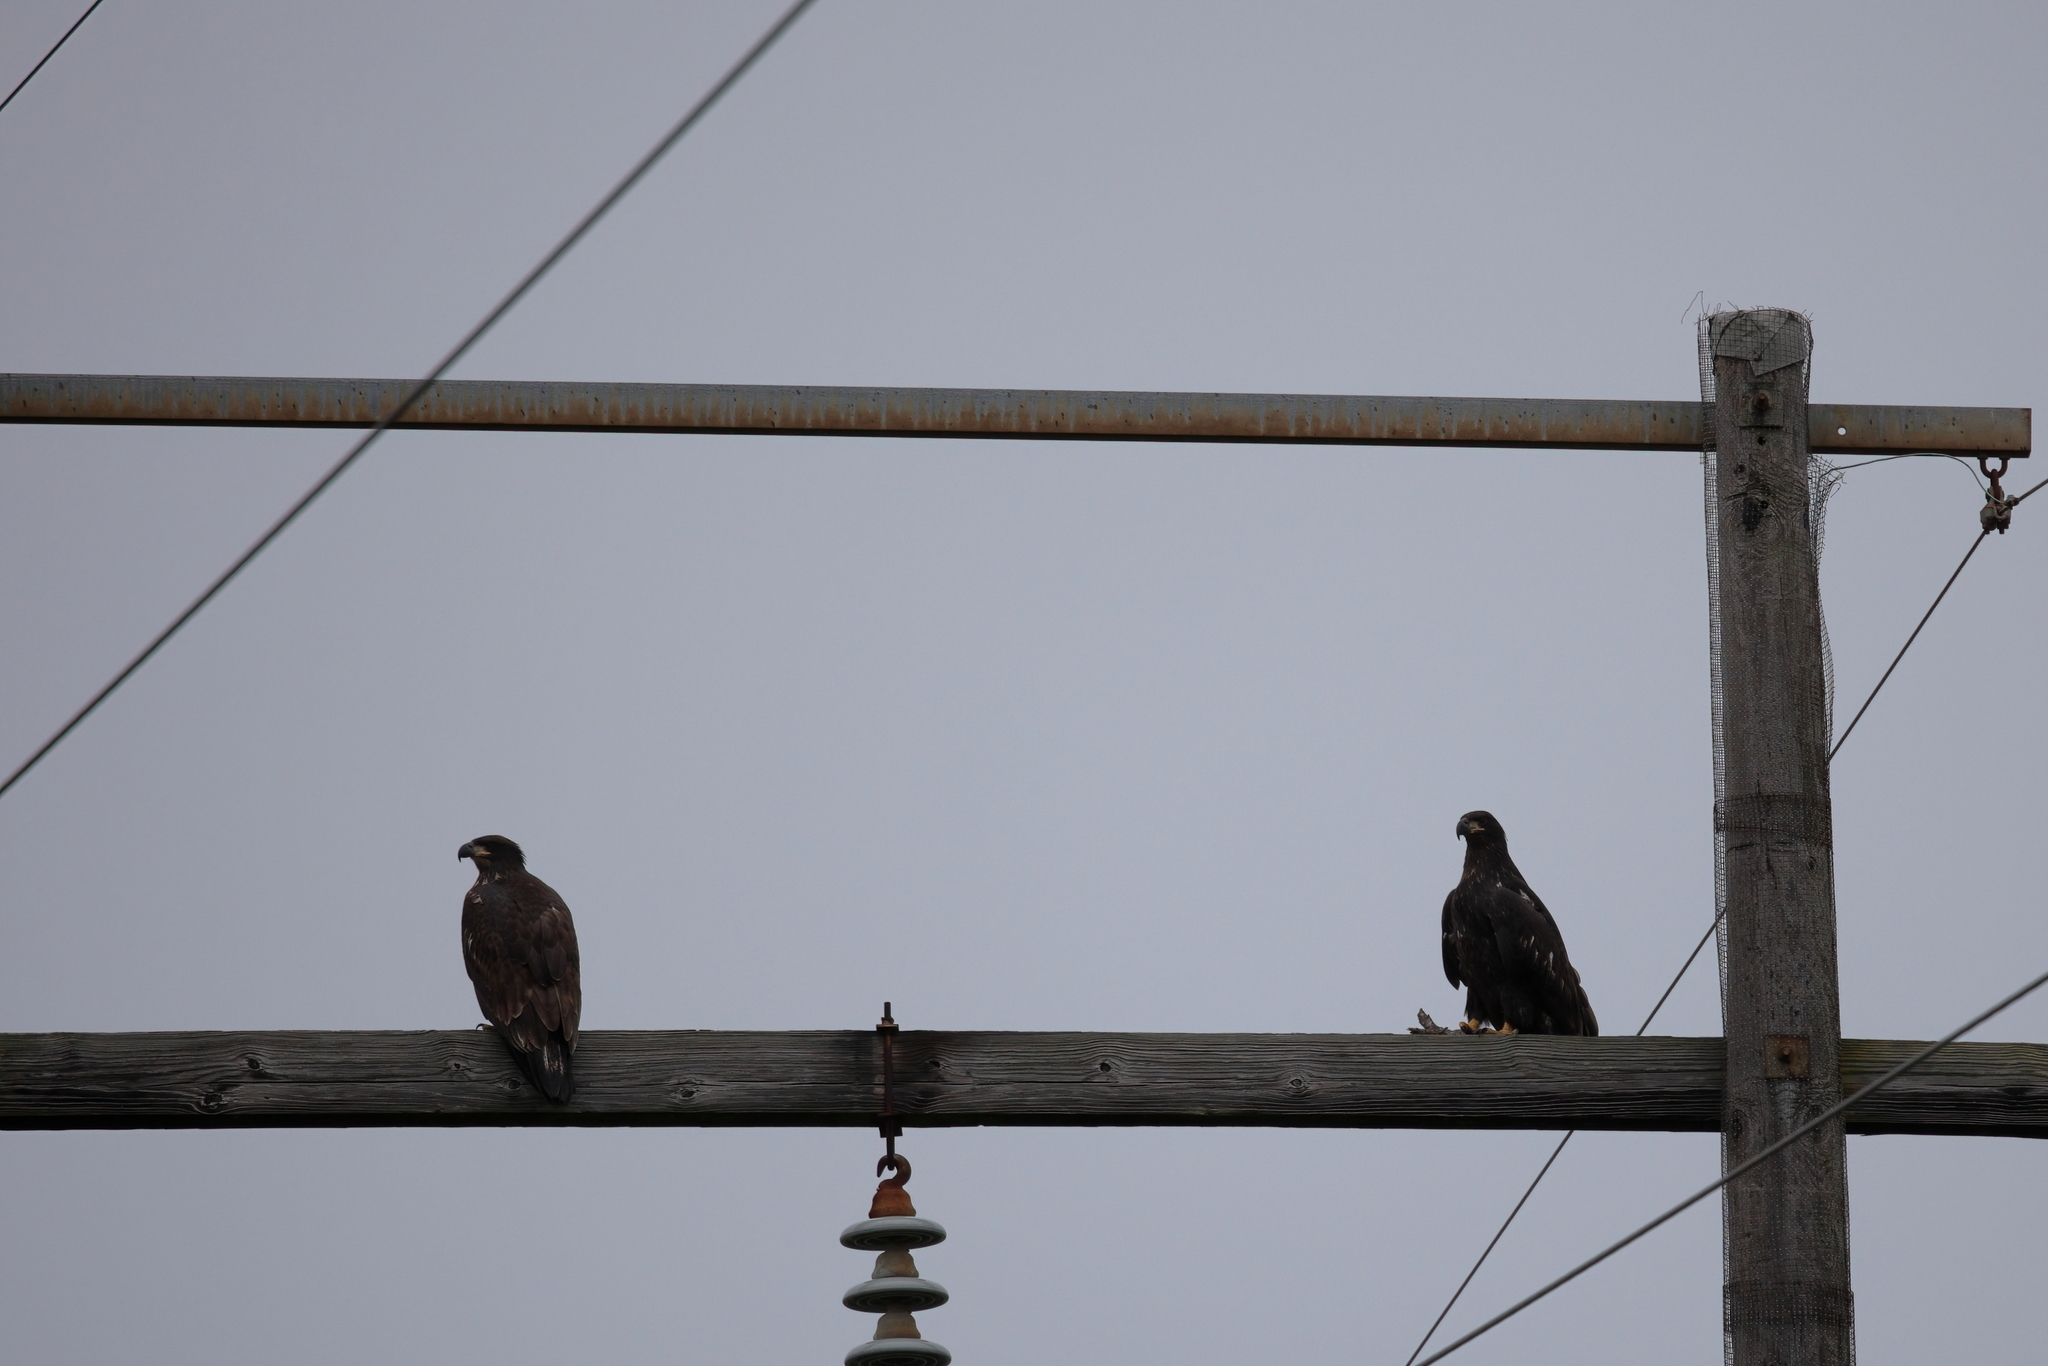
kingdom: Animalia
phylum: Chordata
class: Aves
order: Accipitriformes
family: Accipitridae
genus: Haliaeetus
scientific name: Haliaeetus leucocephalus
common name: Bald eagle
